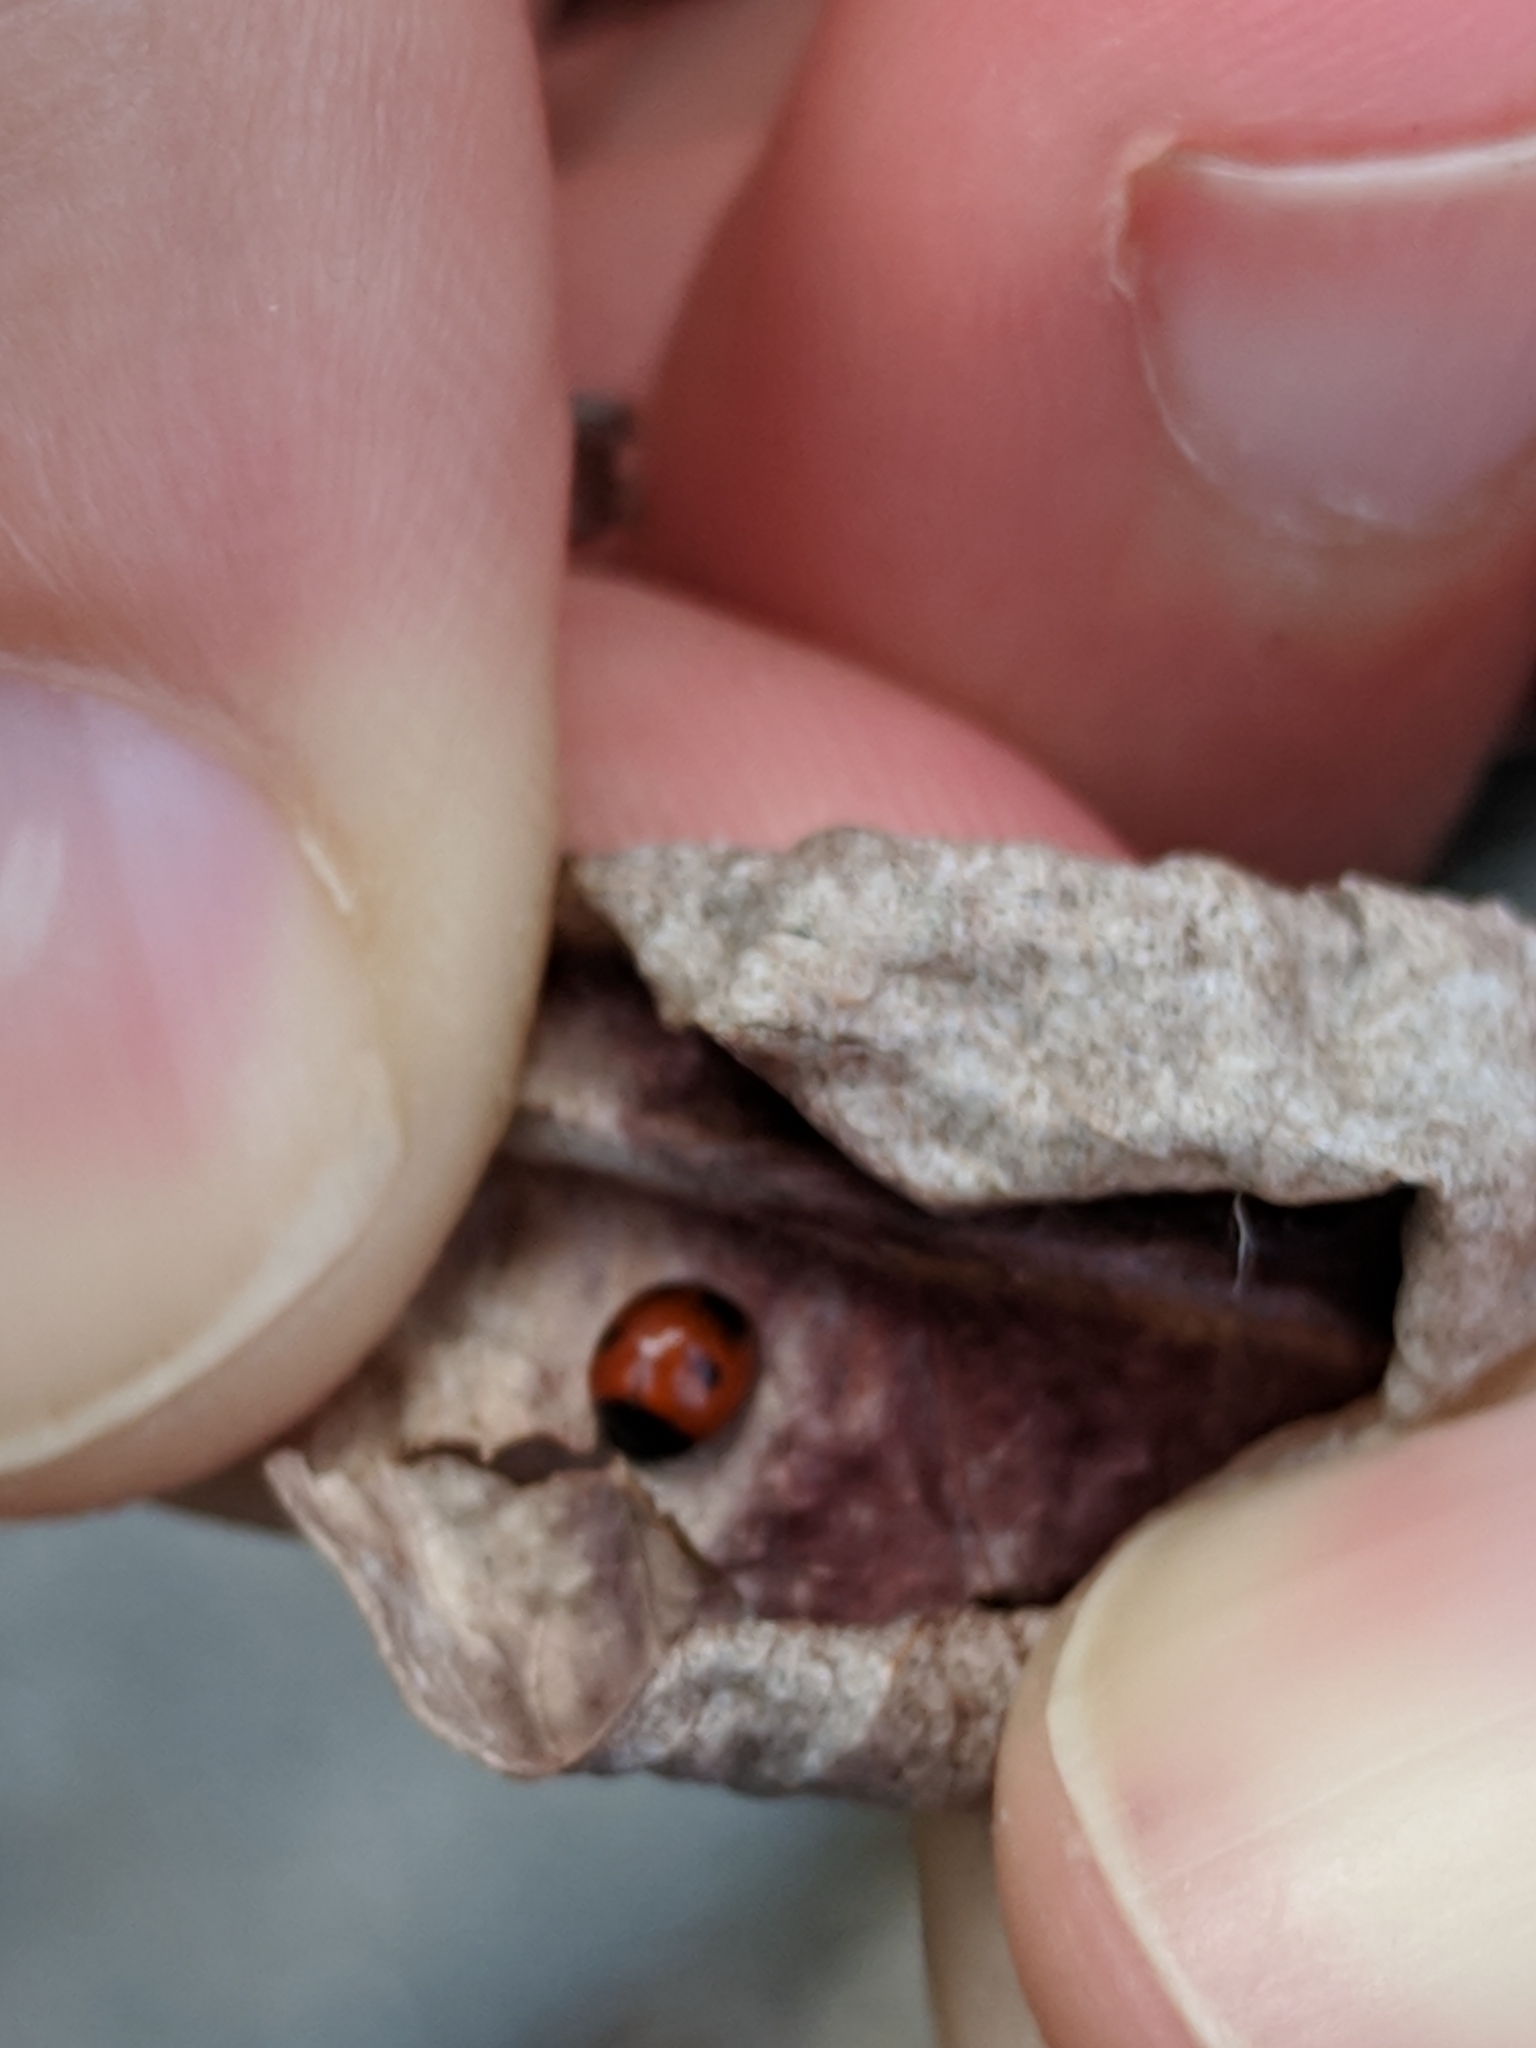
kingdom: Animalia
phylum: Arthropoda
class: Insecta
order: Coleoptera
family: Coccinellidae
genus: Exochomus
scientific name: Exochomus childreni
